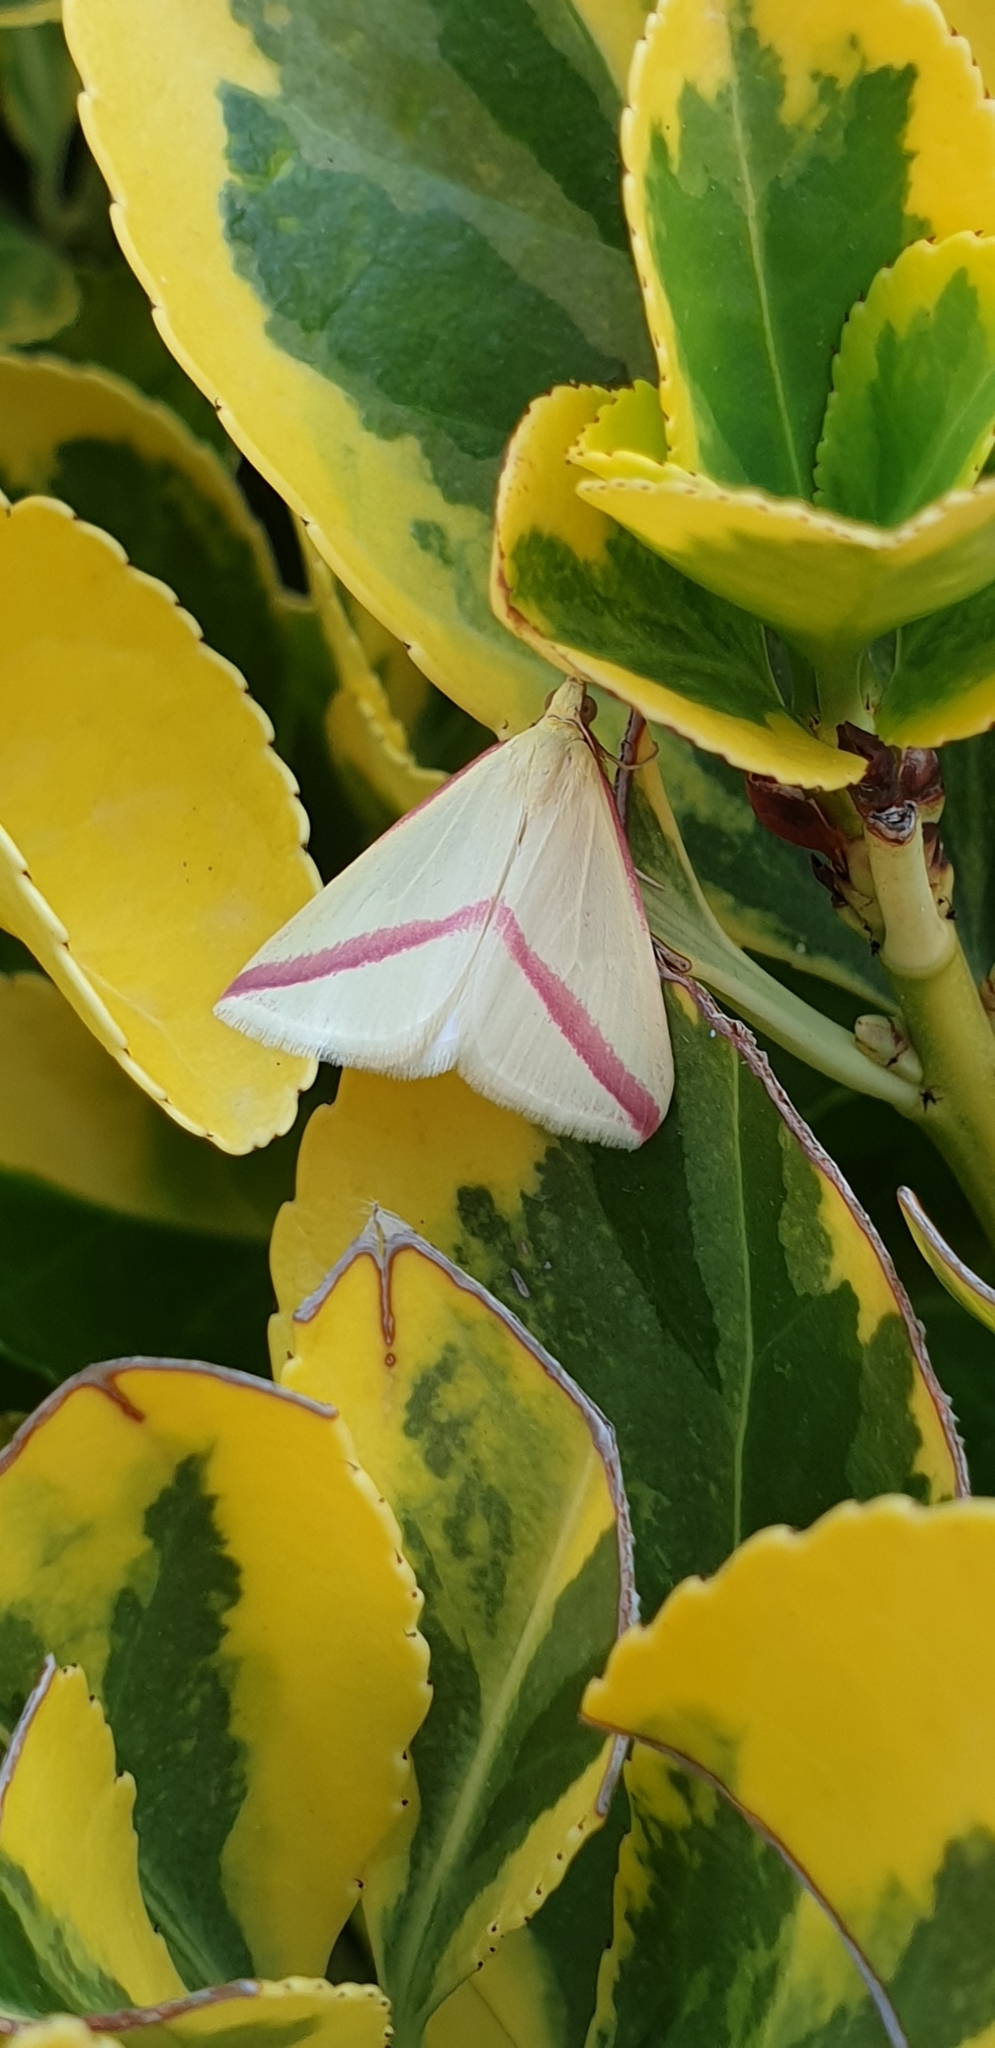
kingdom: Animalia
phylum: Arthropoda
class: Insecta
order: Lepidoptera
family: Geometridae
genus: Rhodometra
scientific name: Rhodometra sacraria
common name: Vestal
